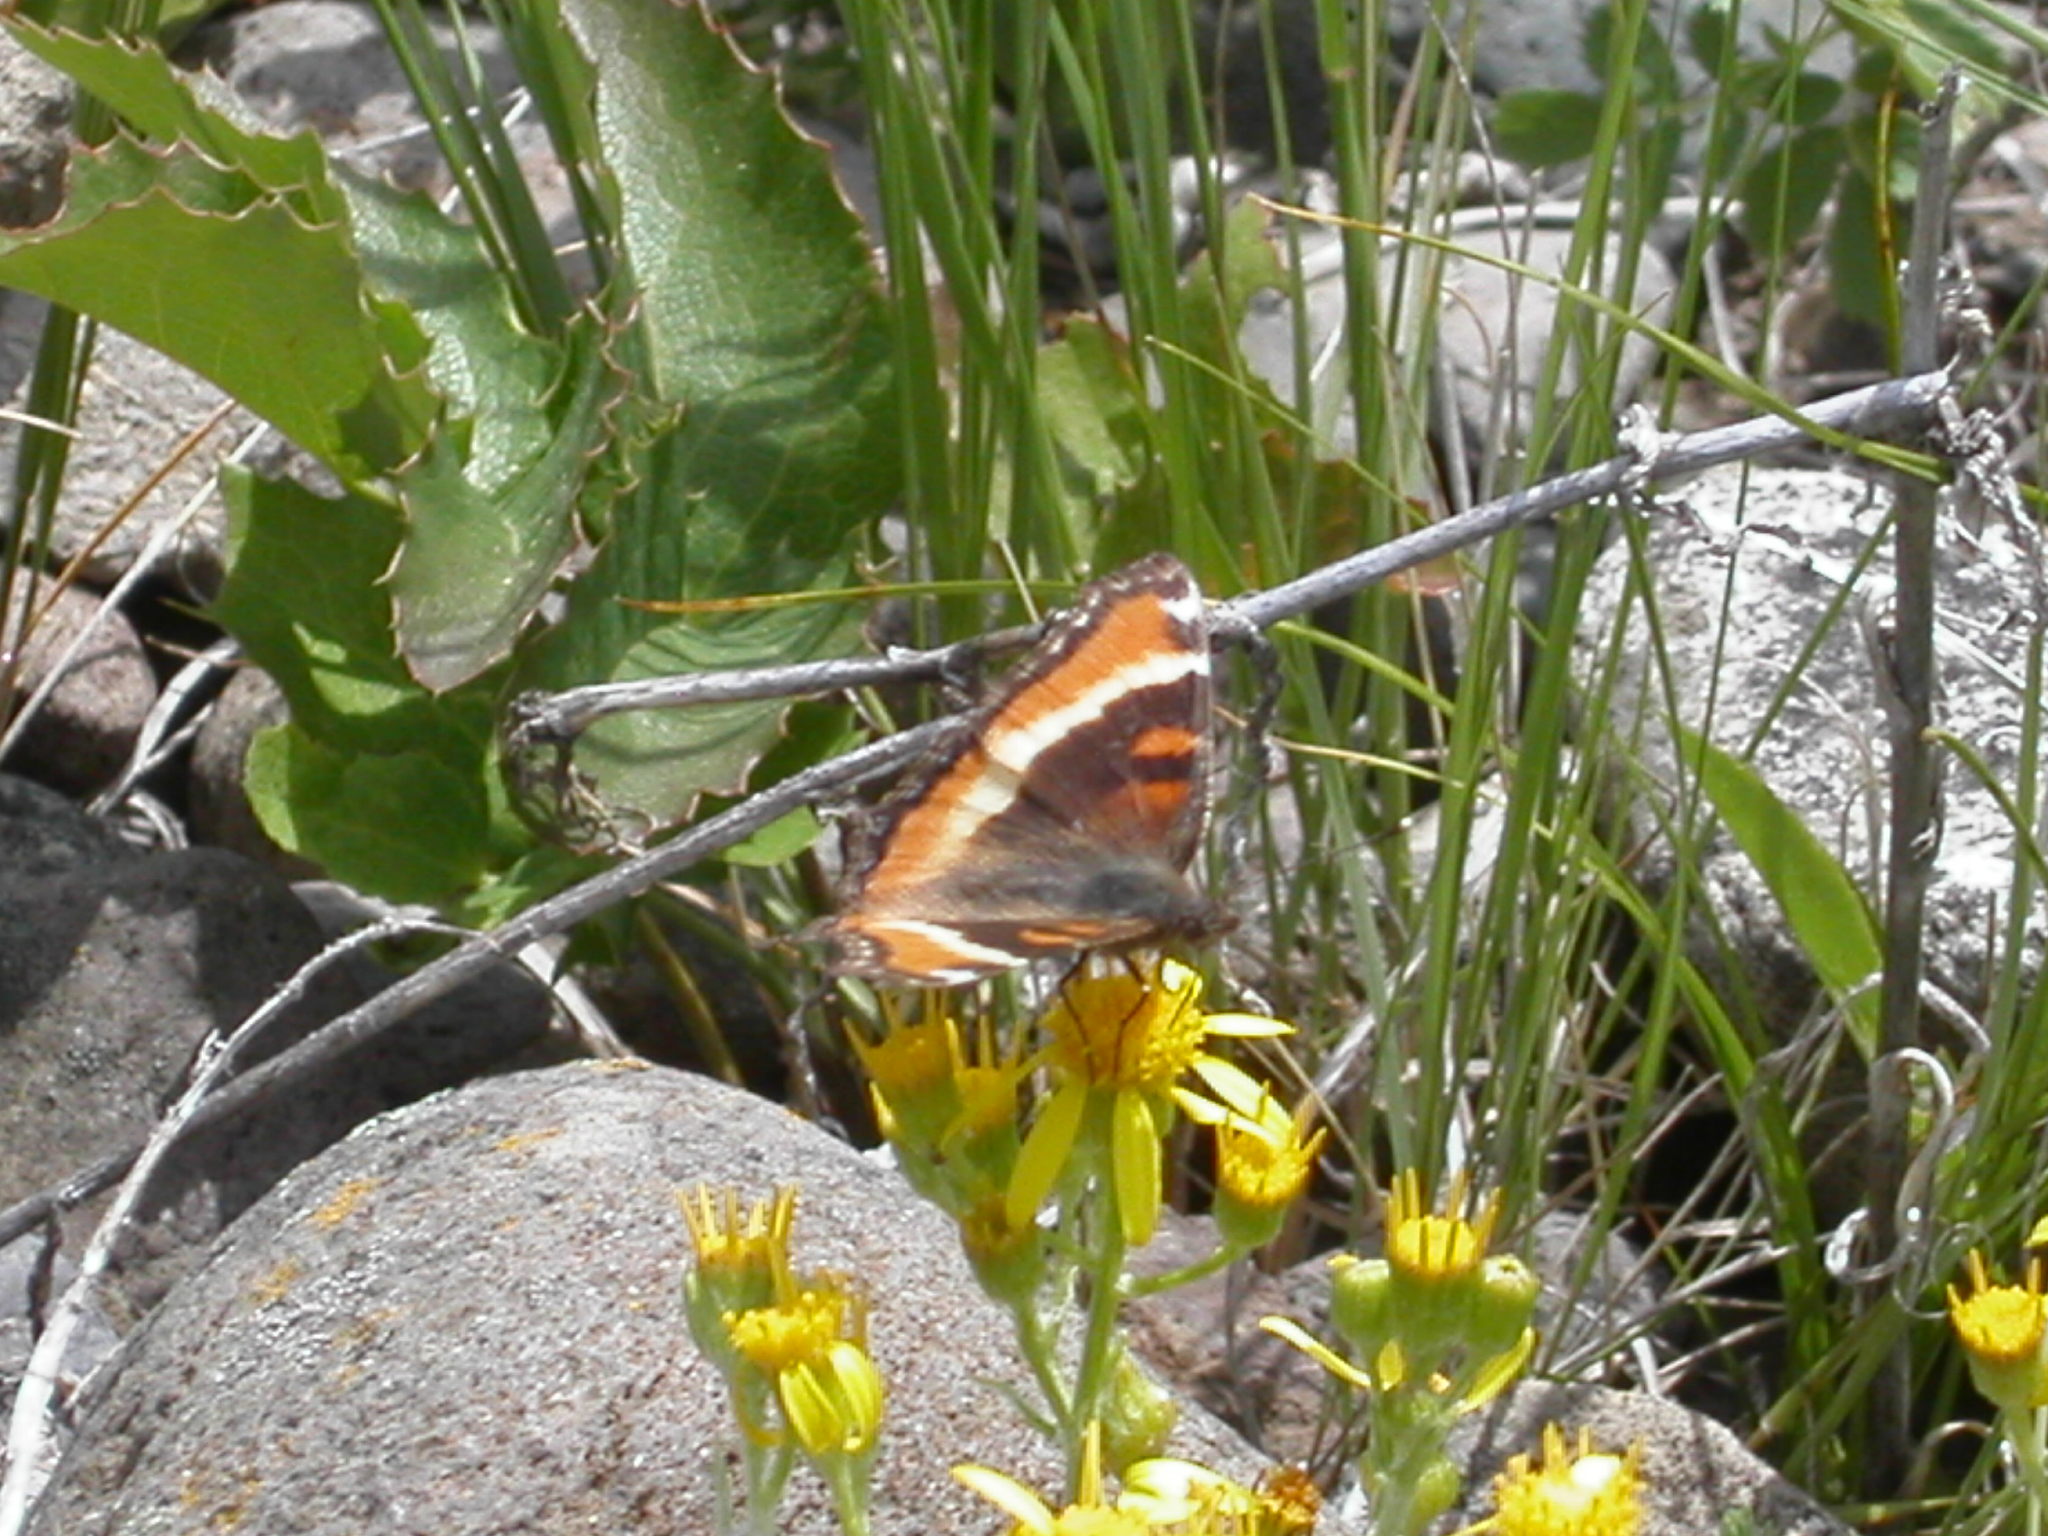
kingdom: Animalia
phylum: Arthropoda
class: Insecta
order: Lepidoptera
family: Nymphalidae
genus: Aglais
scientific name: Aglais milberti
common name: Milbert's tortoiseshell
